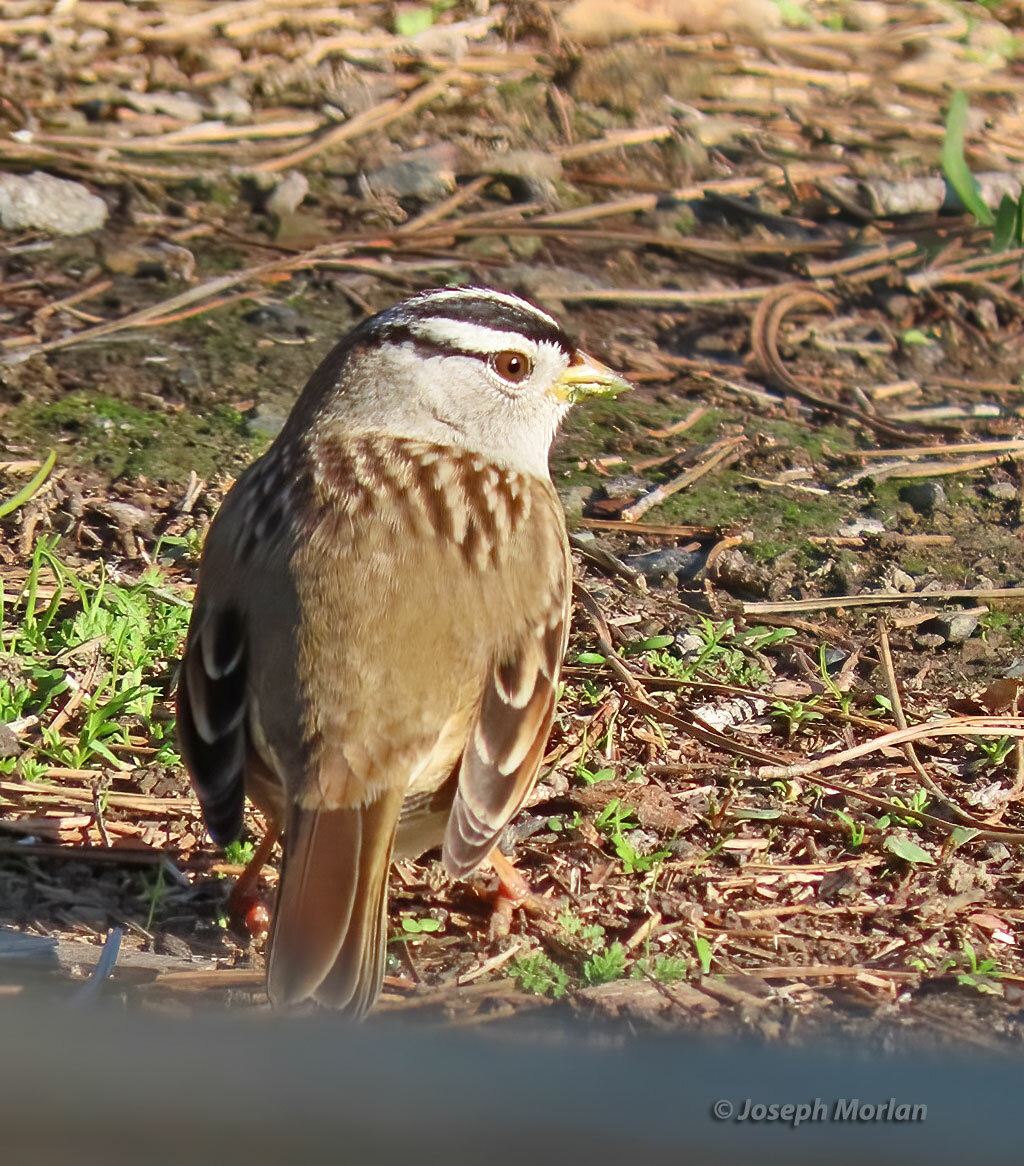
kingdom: Animalia
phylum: Chordata
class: Aves
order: Passeriformes
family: Passerellidae
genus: Zonotrichia
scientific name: Zonotrichia leucophrys
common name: White-crowned sparrow
